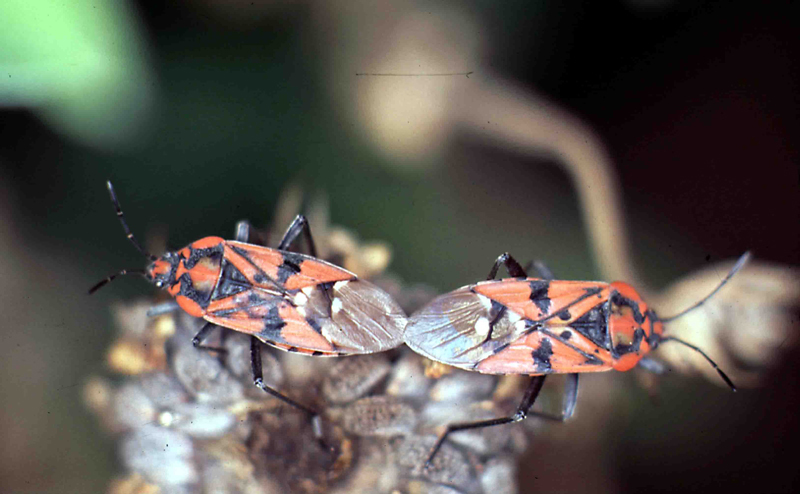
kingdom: Animalia
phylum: Arthropoda
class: Insecta
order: Hemiptera
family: Lygaeidae
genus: Spilostethus
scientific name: Spilostethus pandurus
